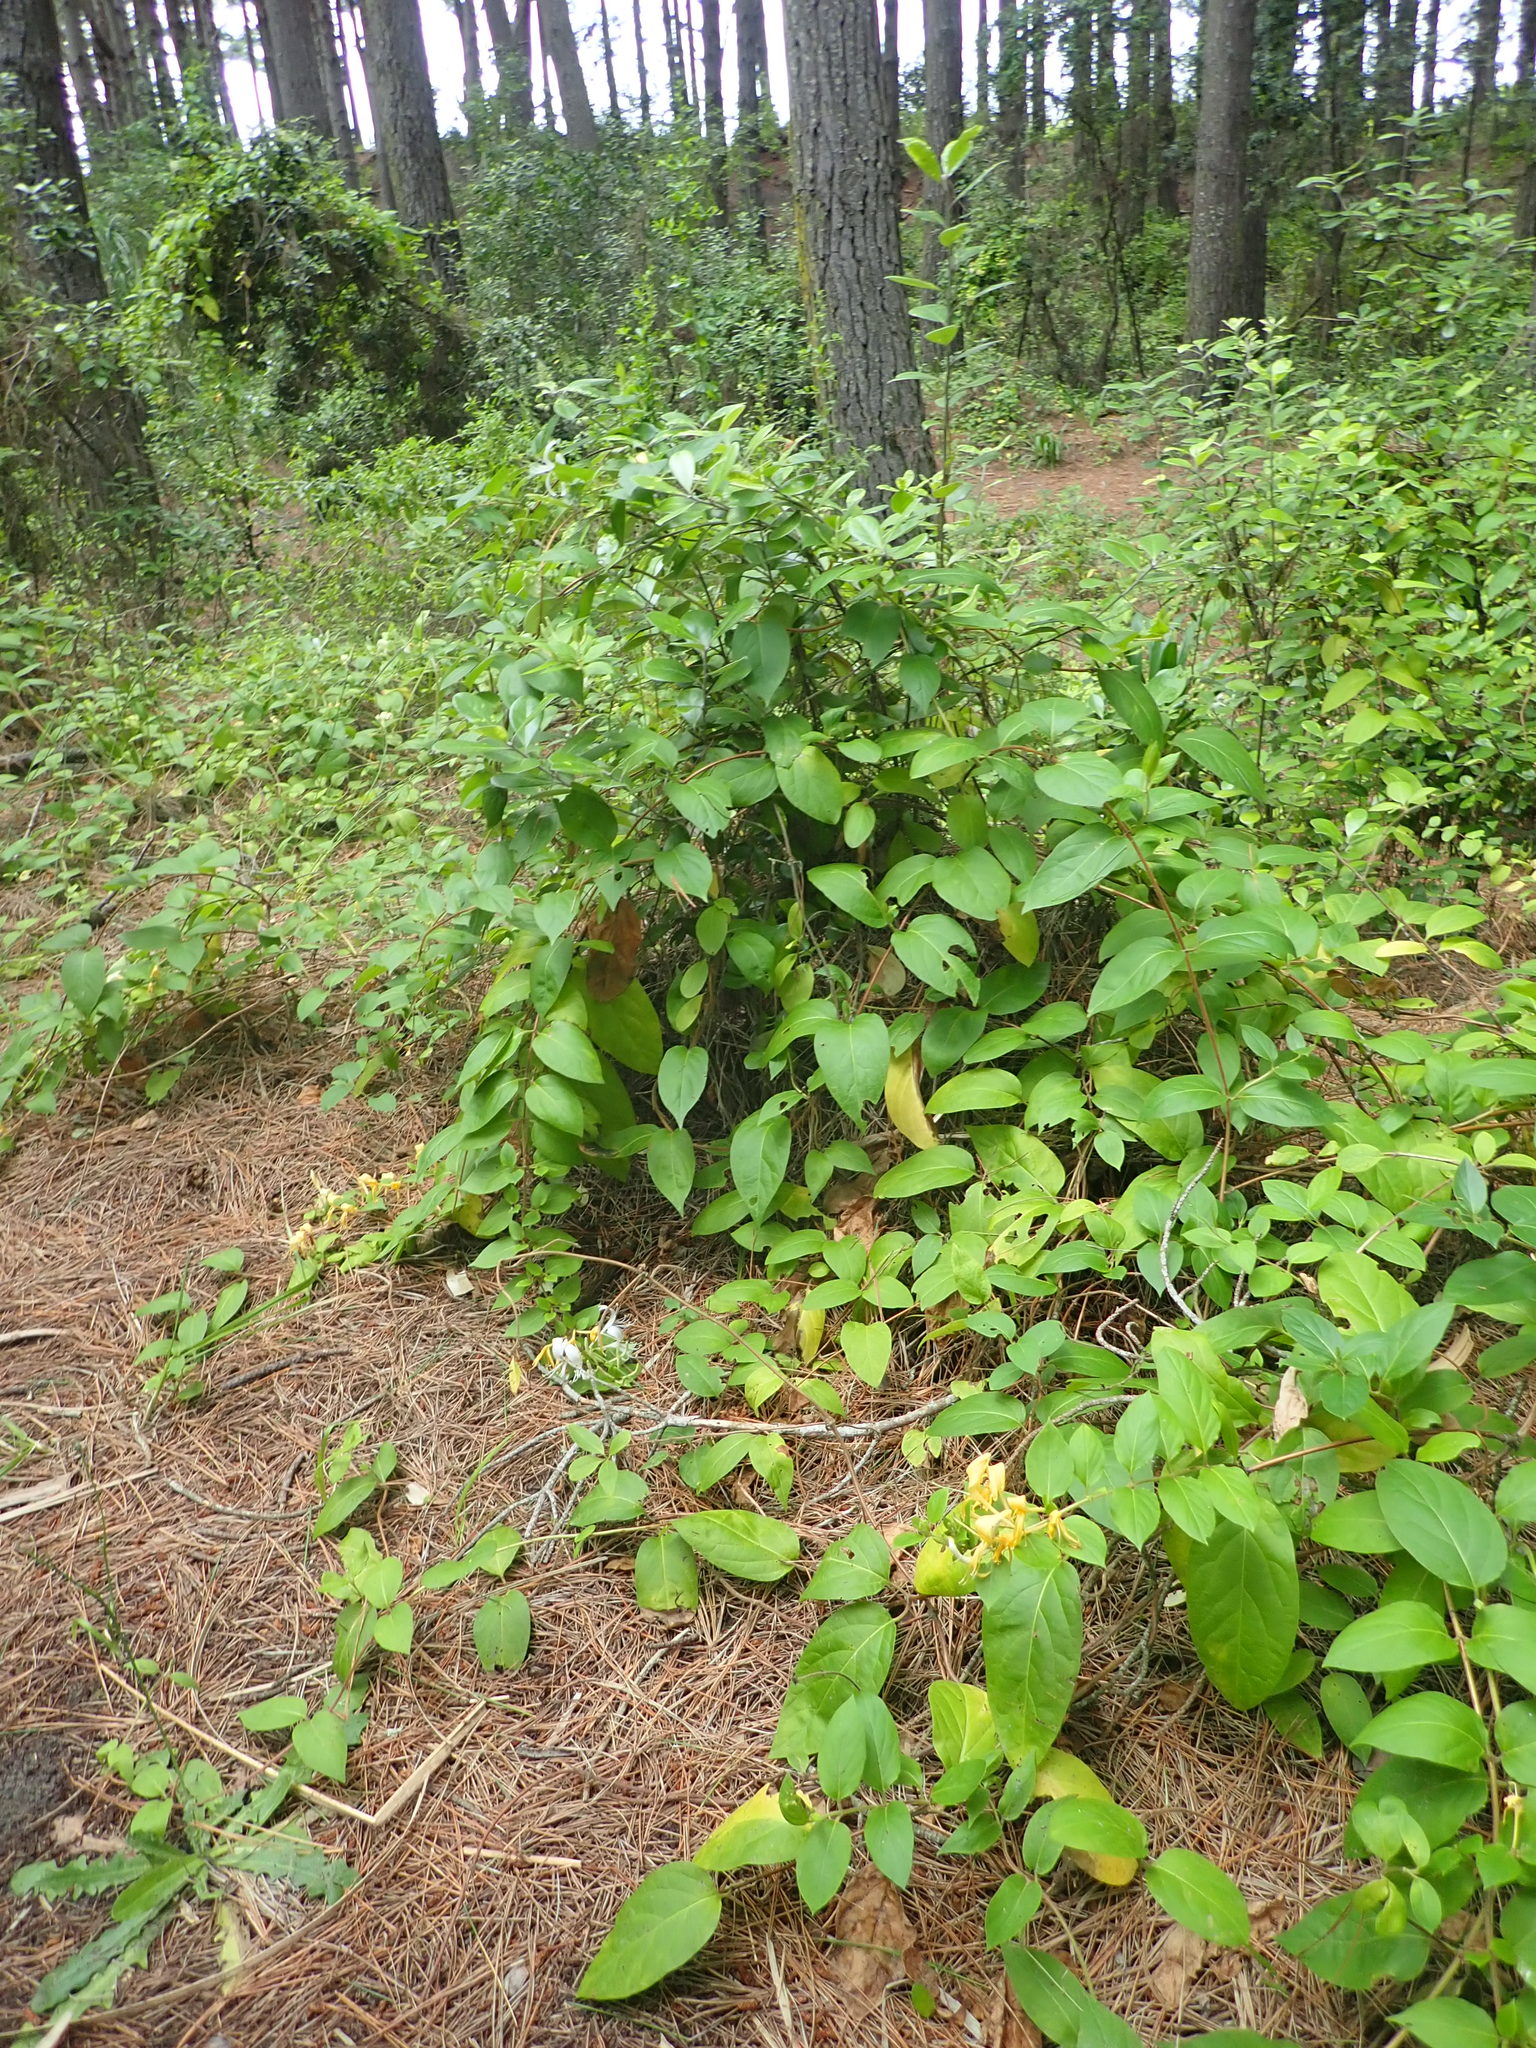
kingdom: Plantae
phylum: Tracheophyta
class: Magnoliopsida
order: Dipsacales
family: Caprifoliaceae
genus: Lonicera
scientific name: Lonicera japonica
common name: Japanese honeysuckle
